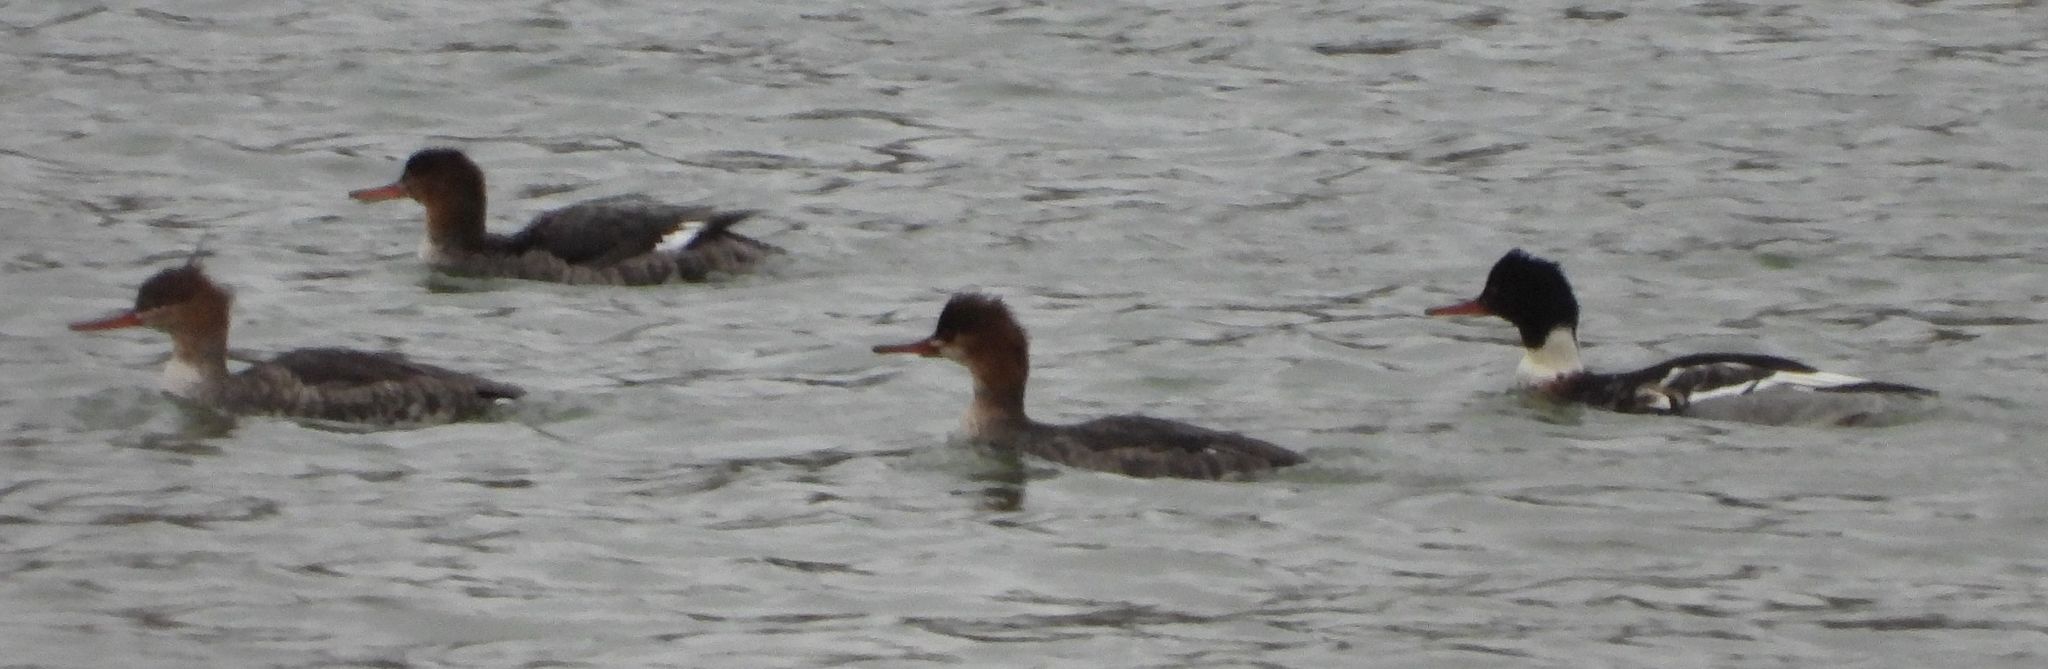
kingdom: Animalia
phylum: Chordata
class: Aves
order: Anseriformes
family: Anatidae
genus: Mergus
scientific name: Mergus serrator
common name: Red-breasted merganser
